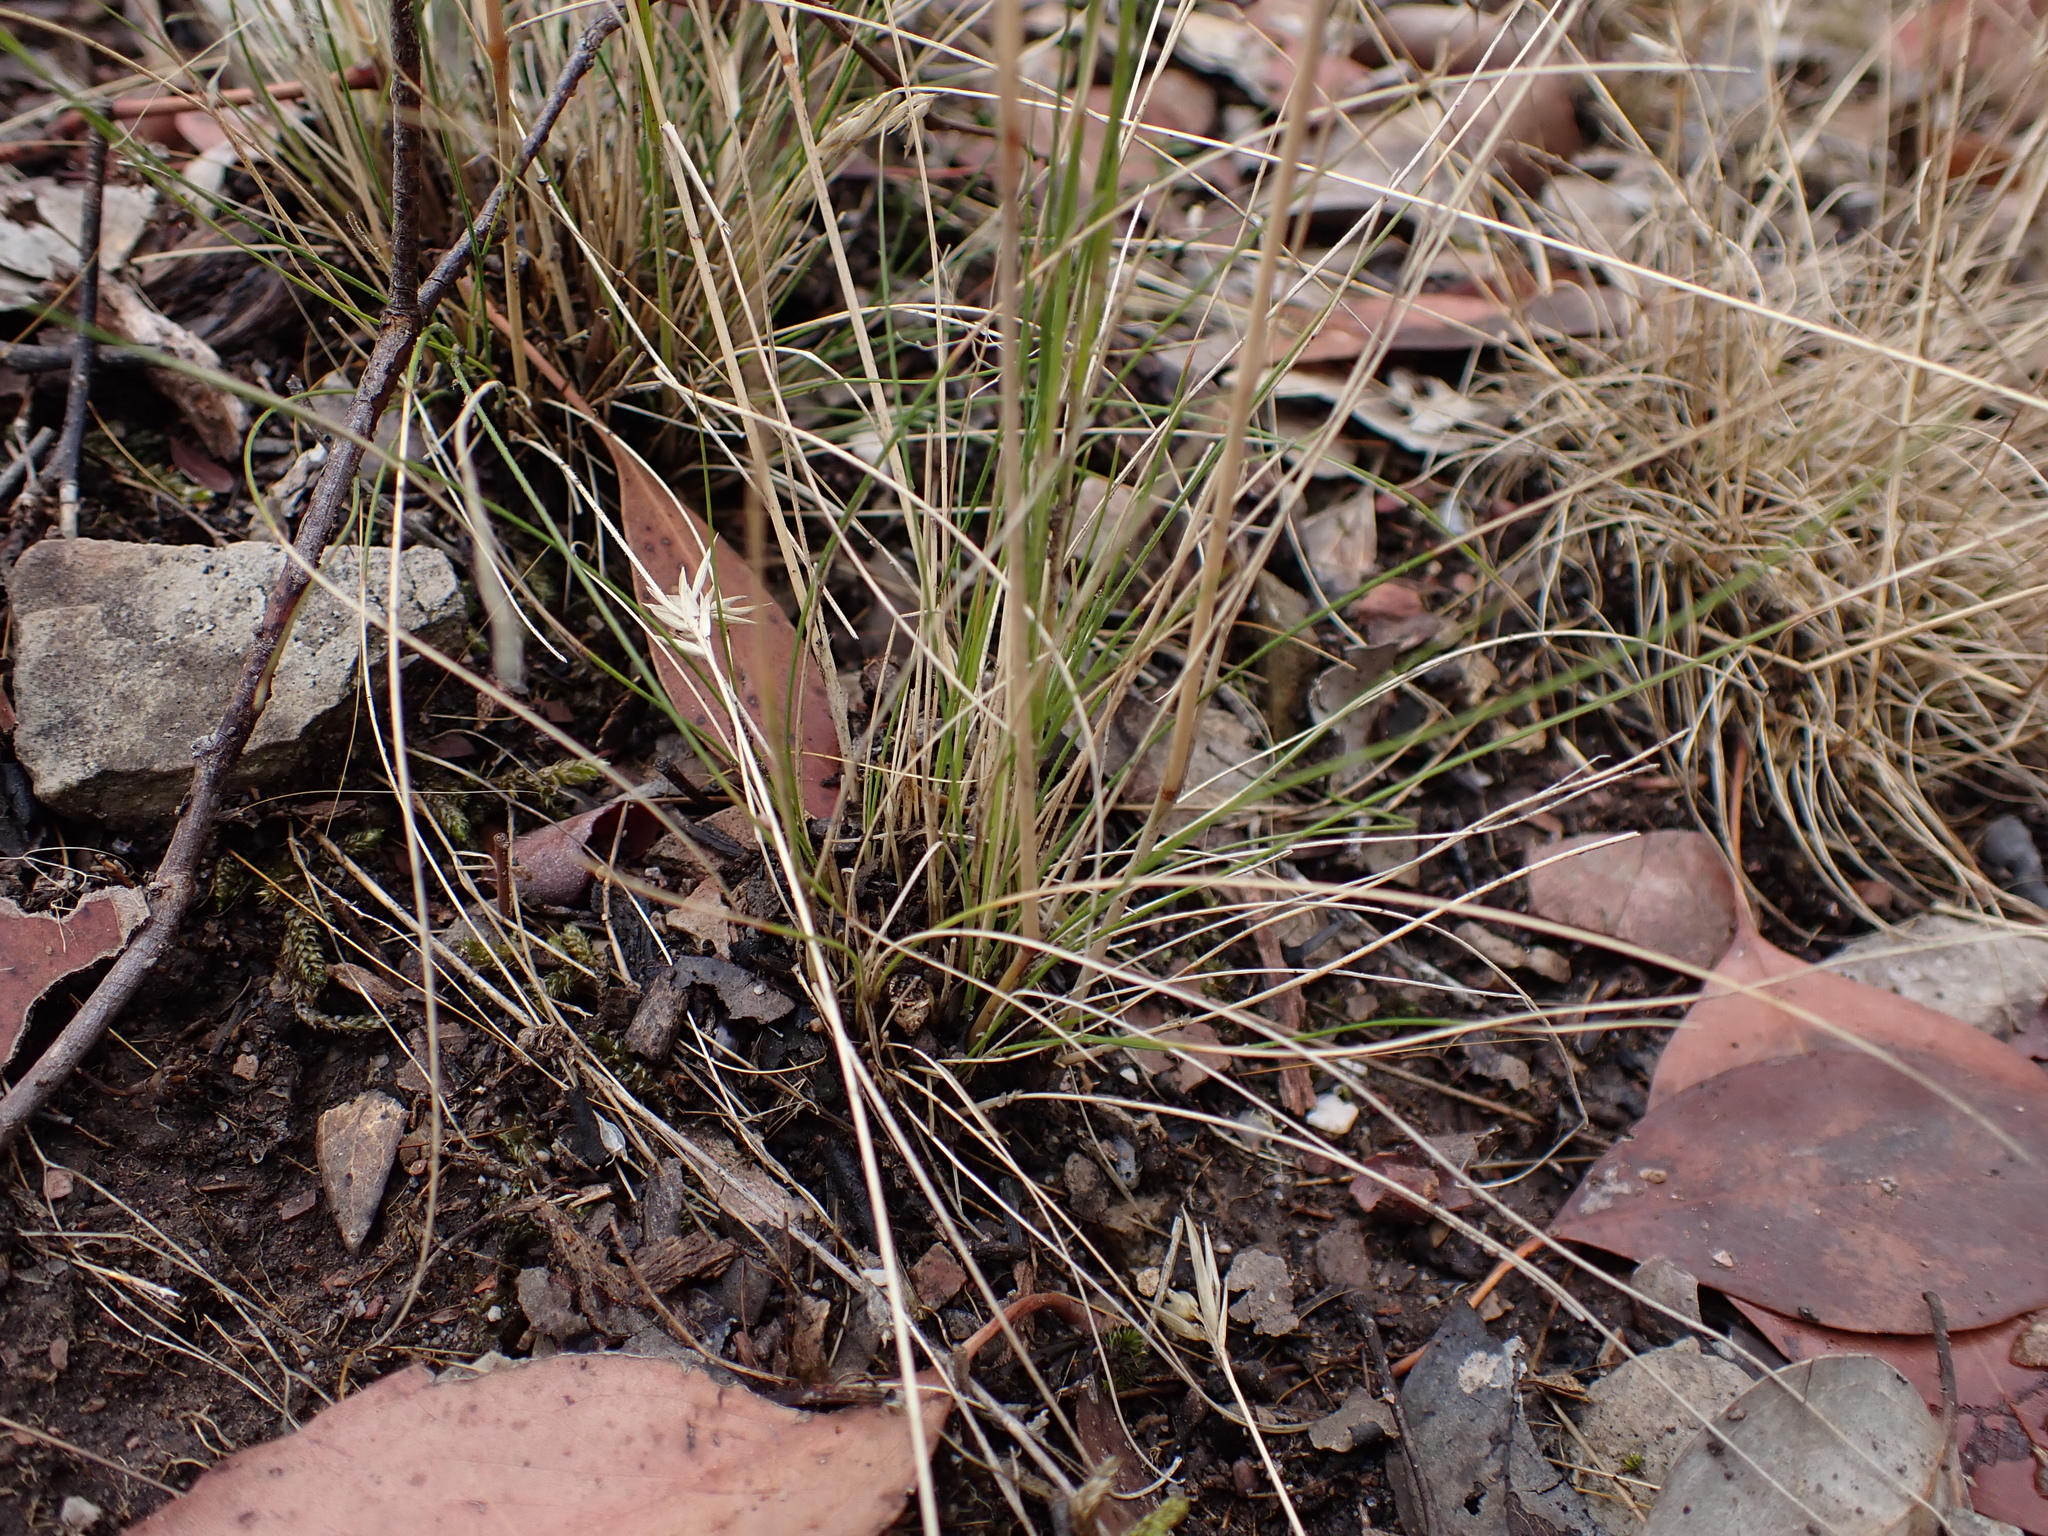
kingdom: Plantae
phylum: Tracheophyta
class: Liliopsida
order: Poales
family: Poaceae
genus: Austrostipa
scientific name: Austrostipa scabra
